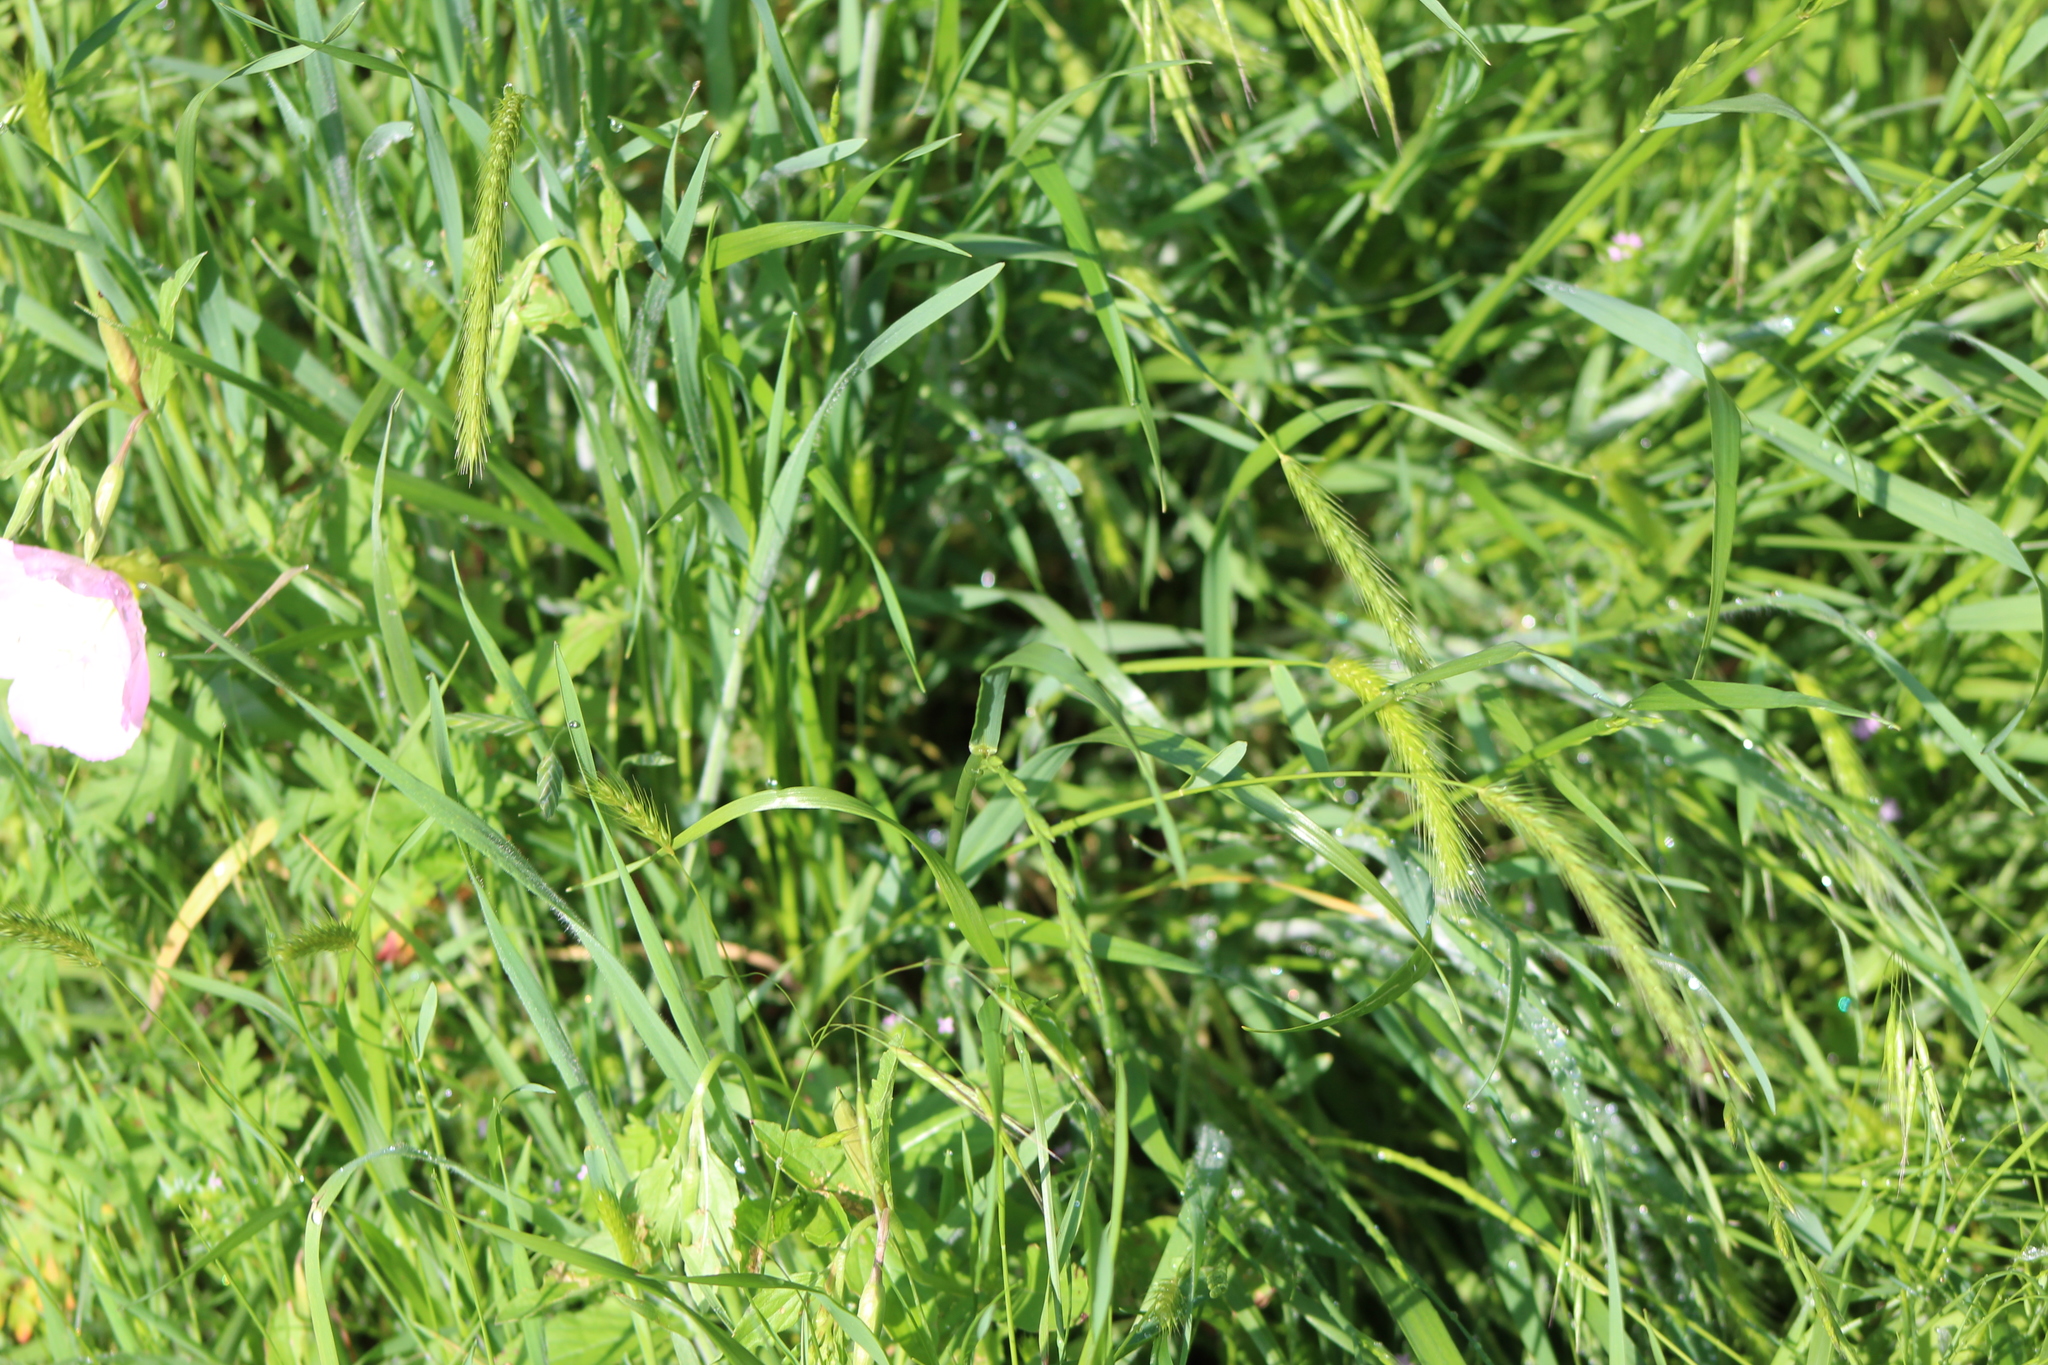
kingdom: Plantae
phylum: Tracheophyta
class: Liliopsida
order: Poales
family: Poaceae
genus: Hordeum
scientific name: Hordeum pusillum
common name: Little barley
